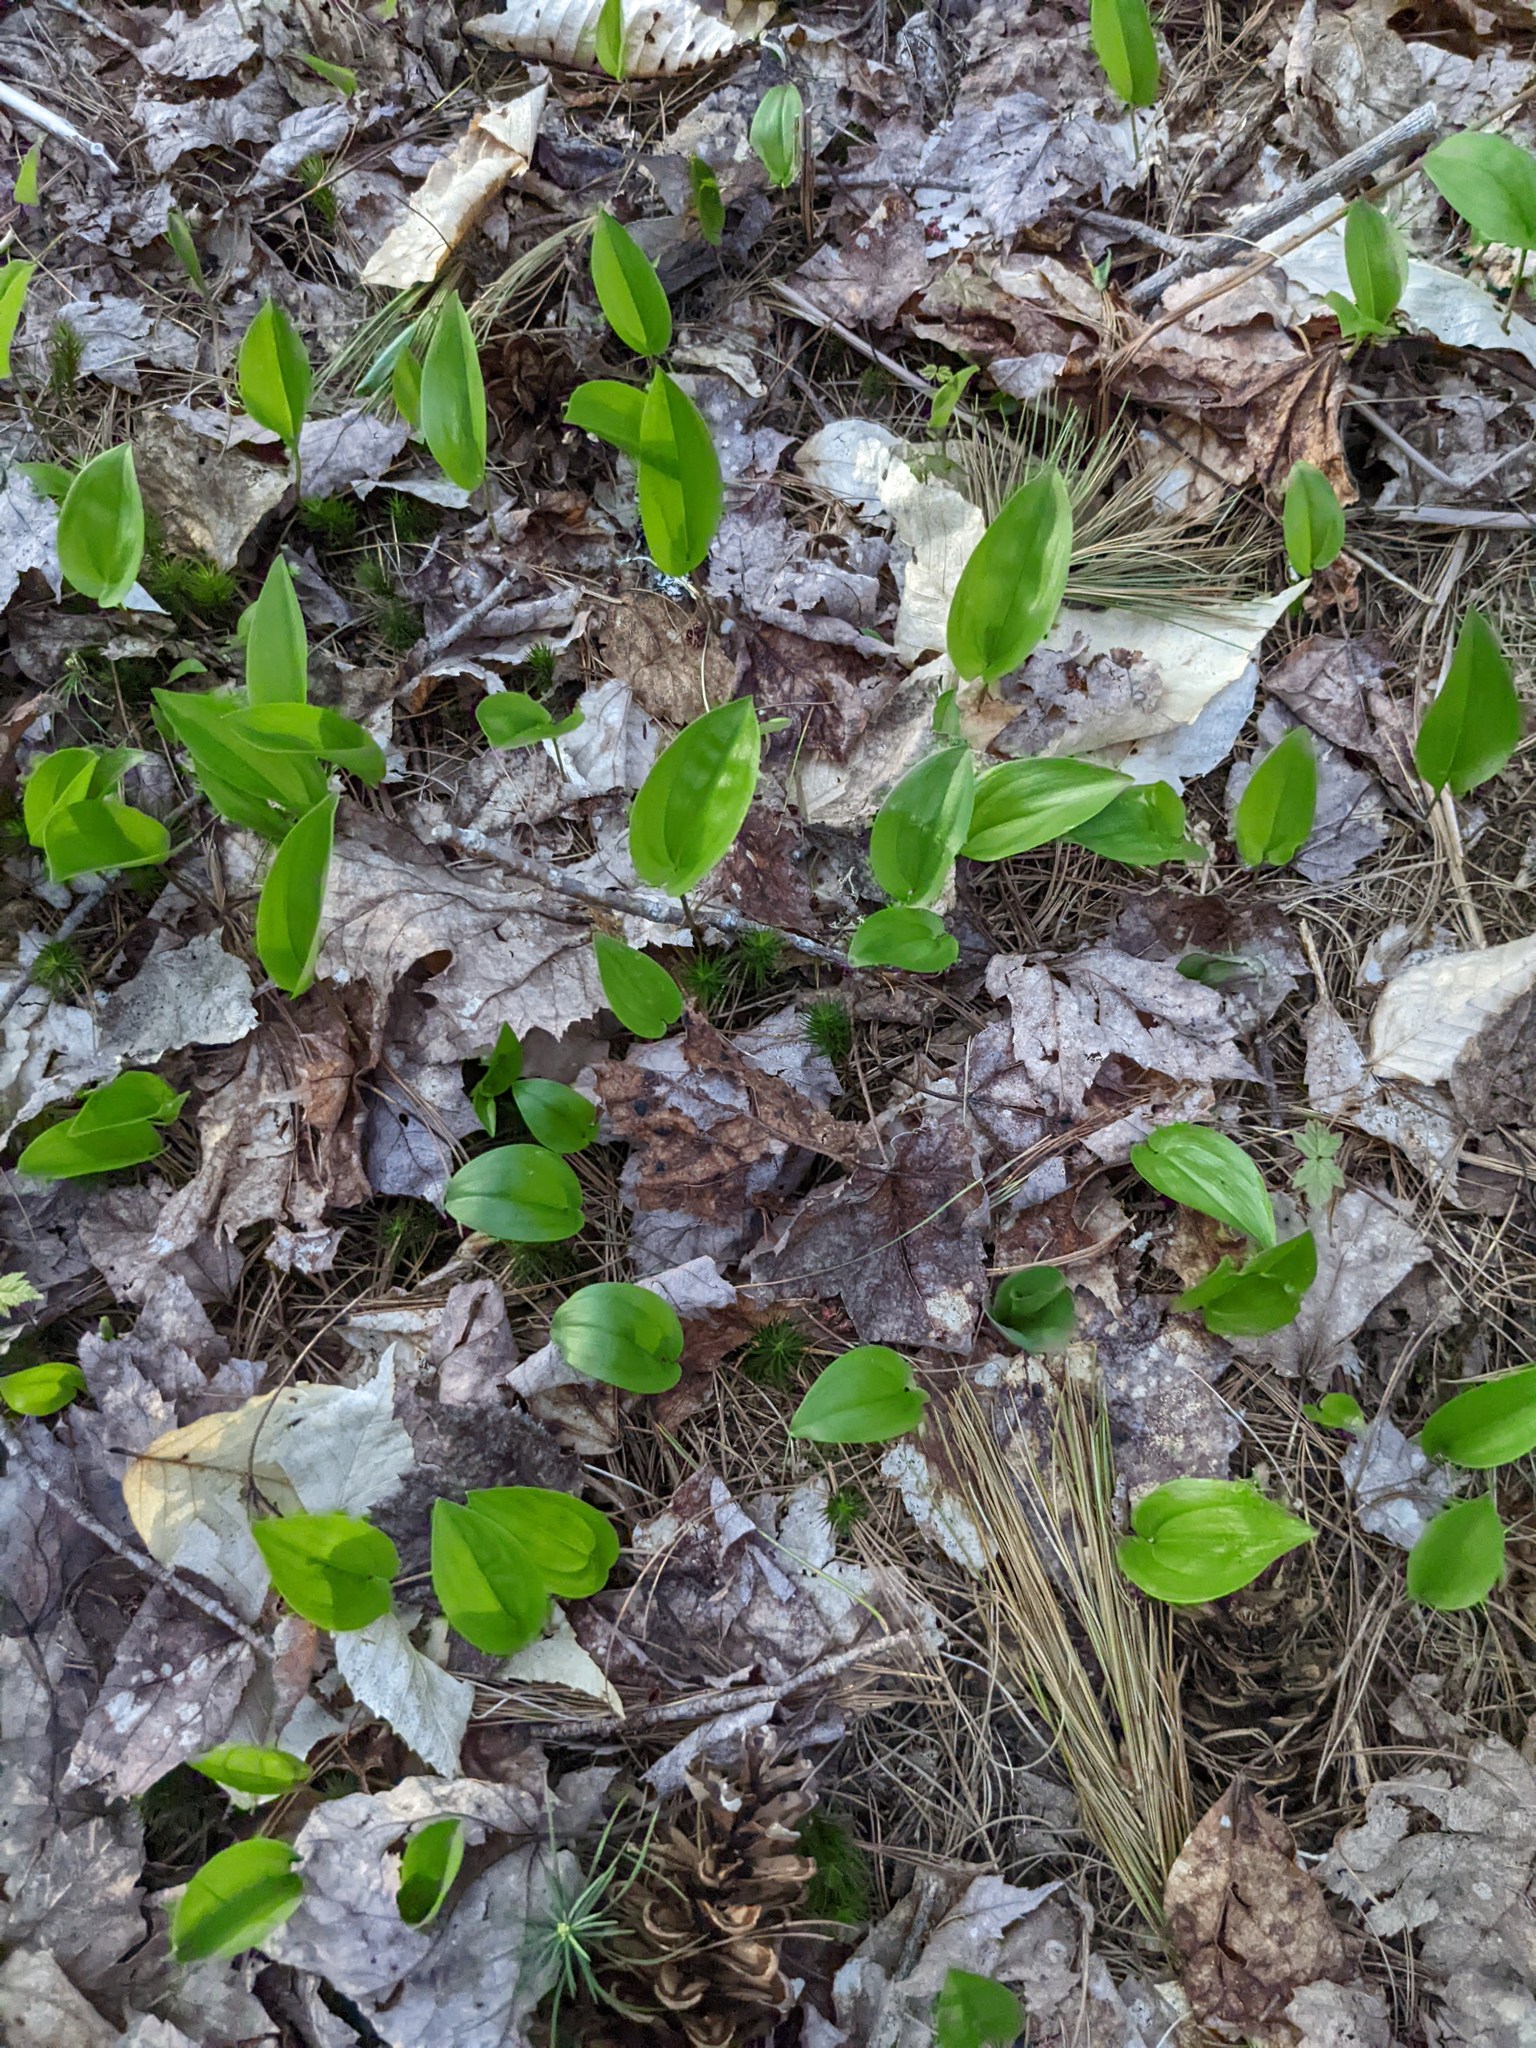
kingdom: Plantae
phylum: Tracheophyta
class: Liliopsida
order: Asparagales
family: Asparagaceae
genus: Maianthemum
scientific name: Maianthemum canadense
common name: False lily-of-the-valley
